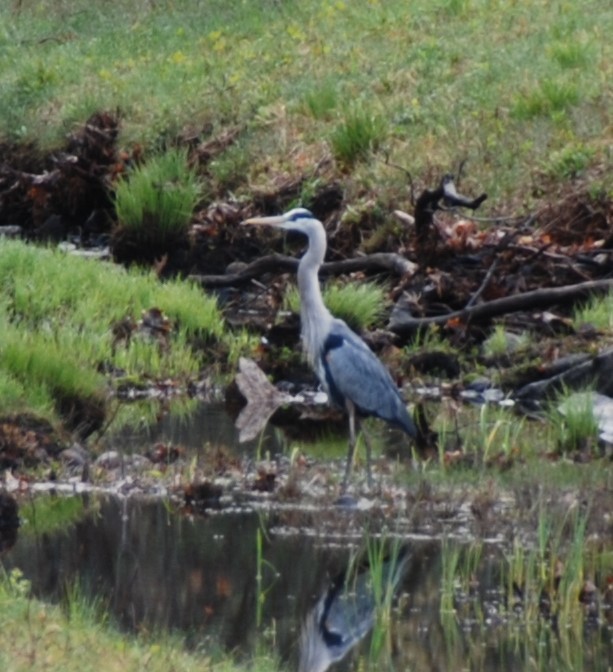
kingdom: Animalia
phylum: Chordata
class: Aves
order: Pelecaniformes
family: Ardeidae
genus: Ardea
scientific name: Ardea herodias
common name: Great blue heron
